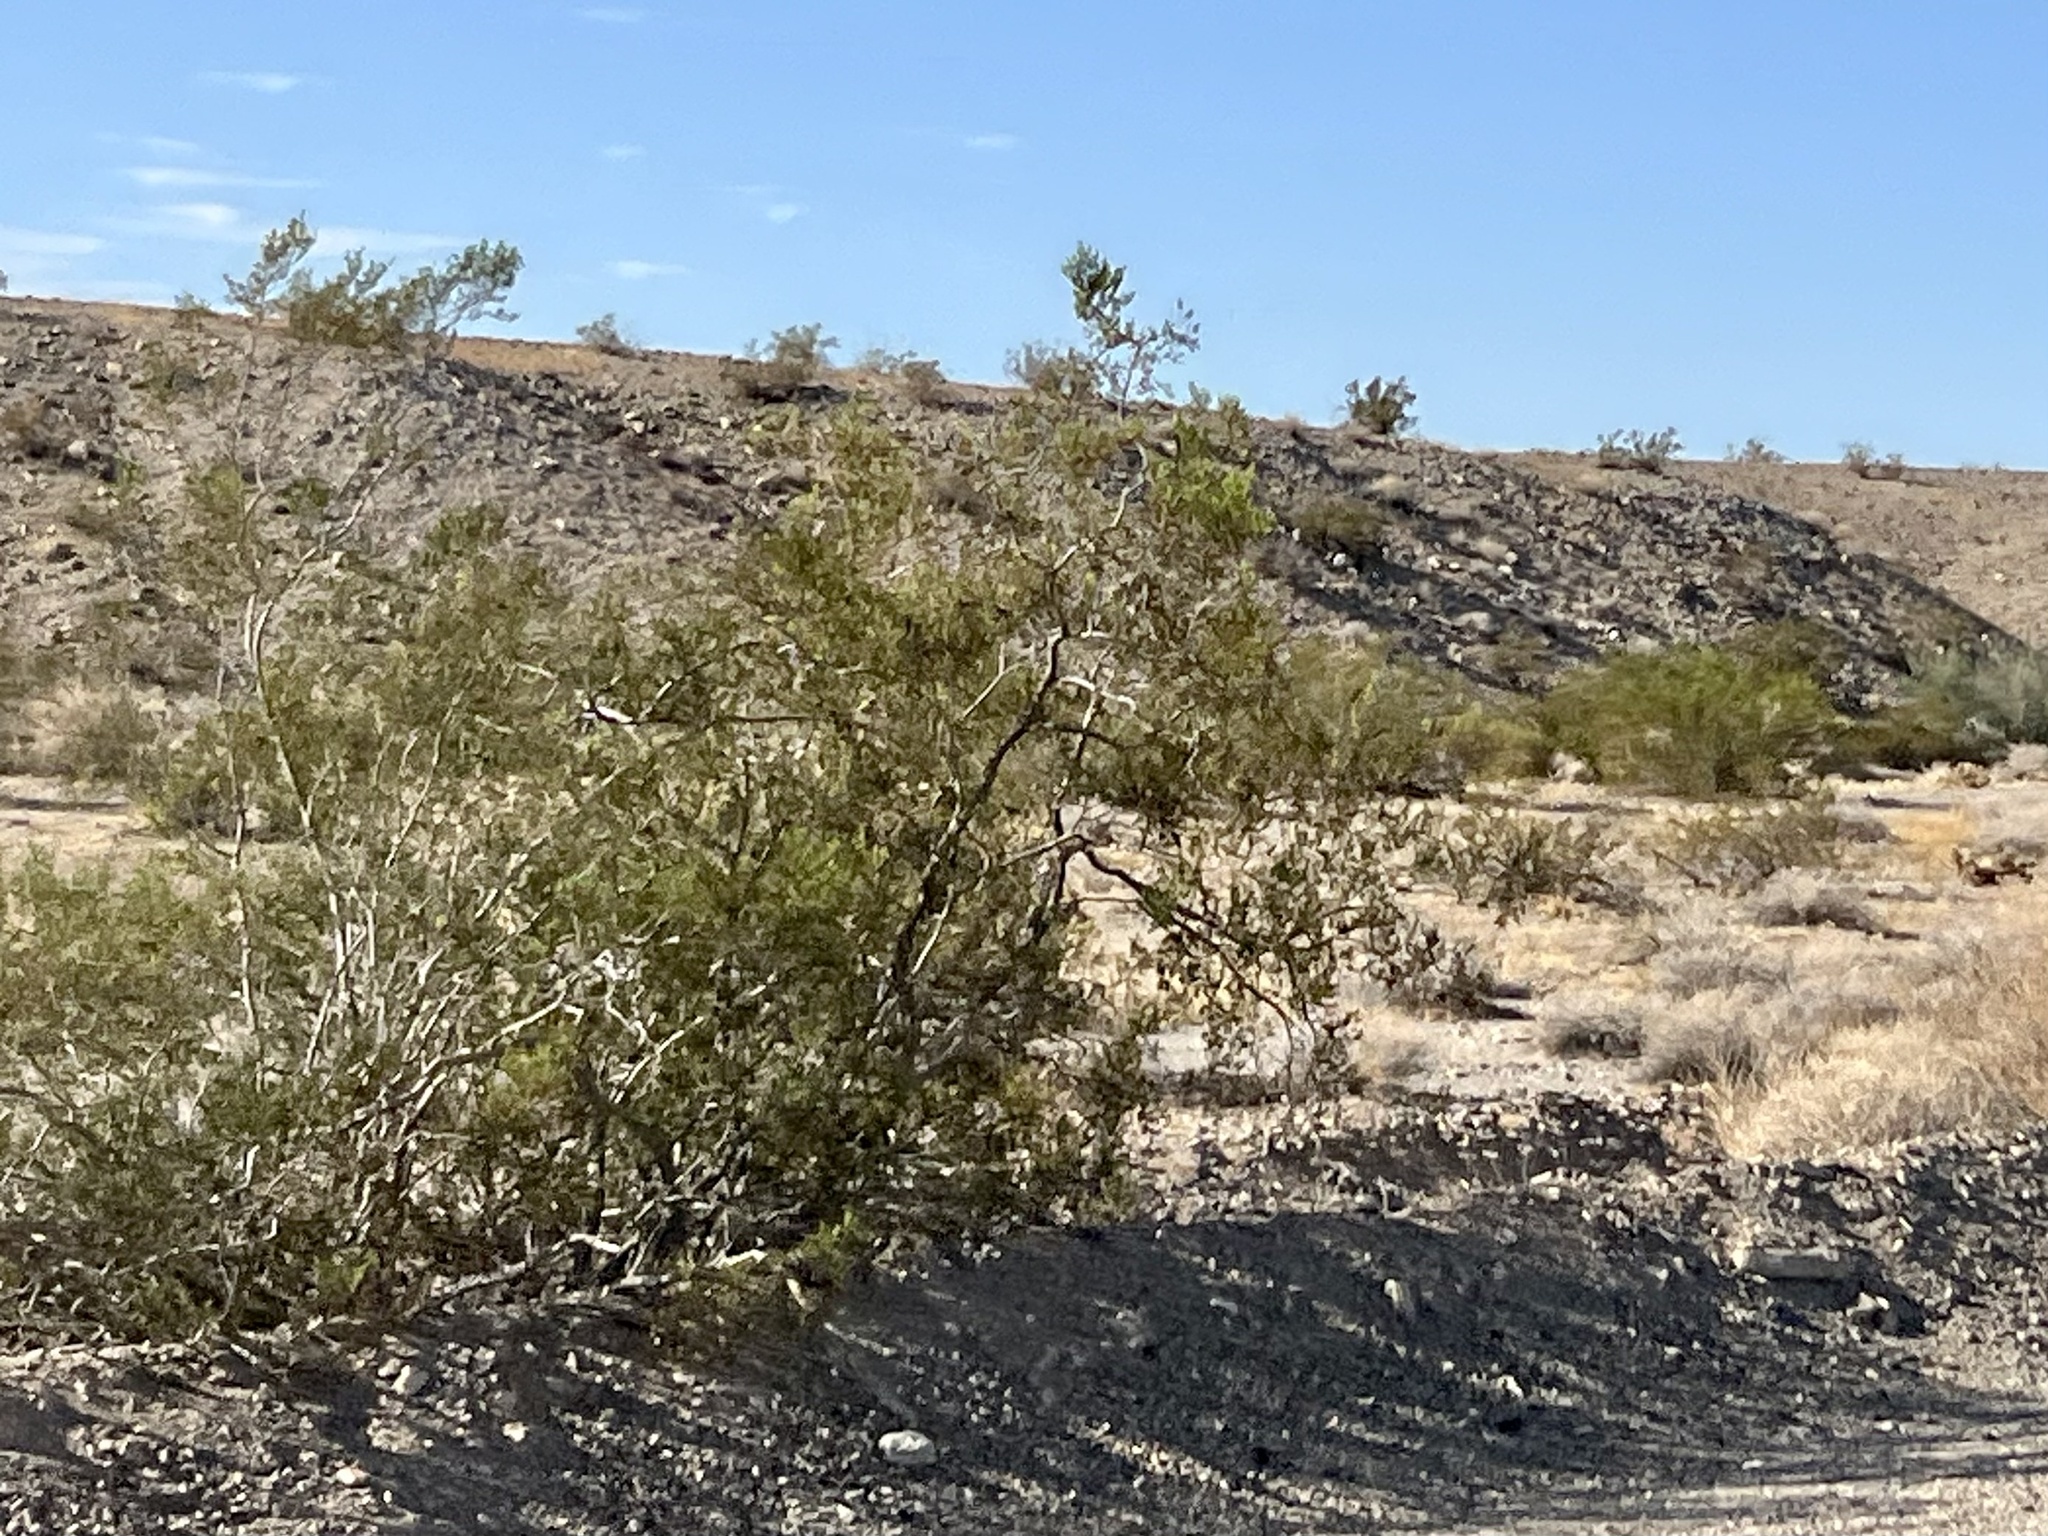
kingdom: Plantae
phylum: Tracheophyta
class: Magnoliopsida
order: Zygophyllales
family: Zygophyllaceae
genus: Larrea
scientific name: Larrea tridentata
